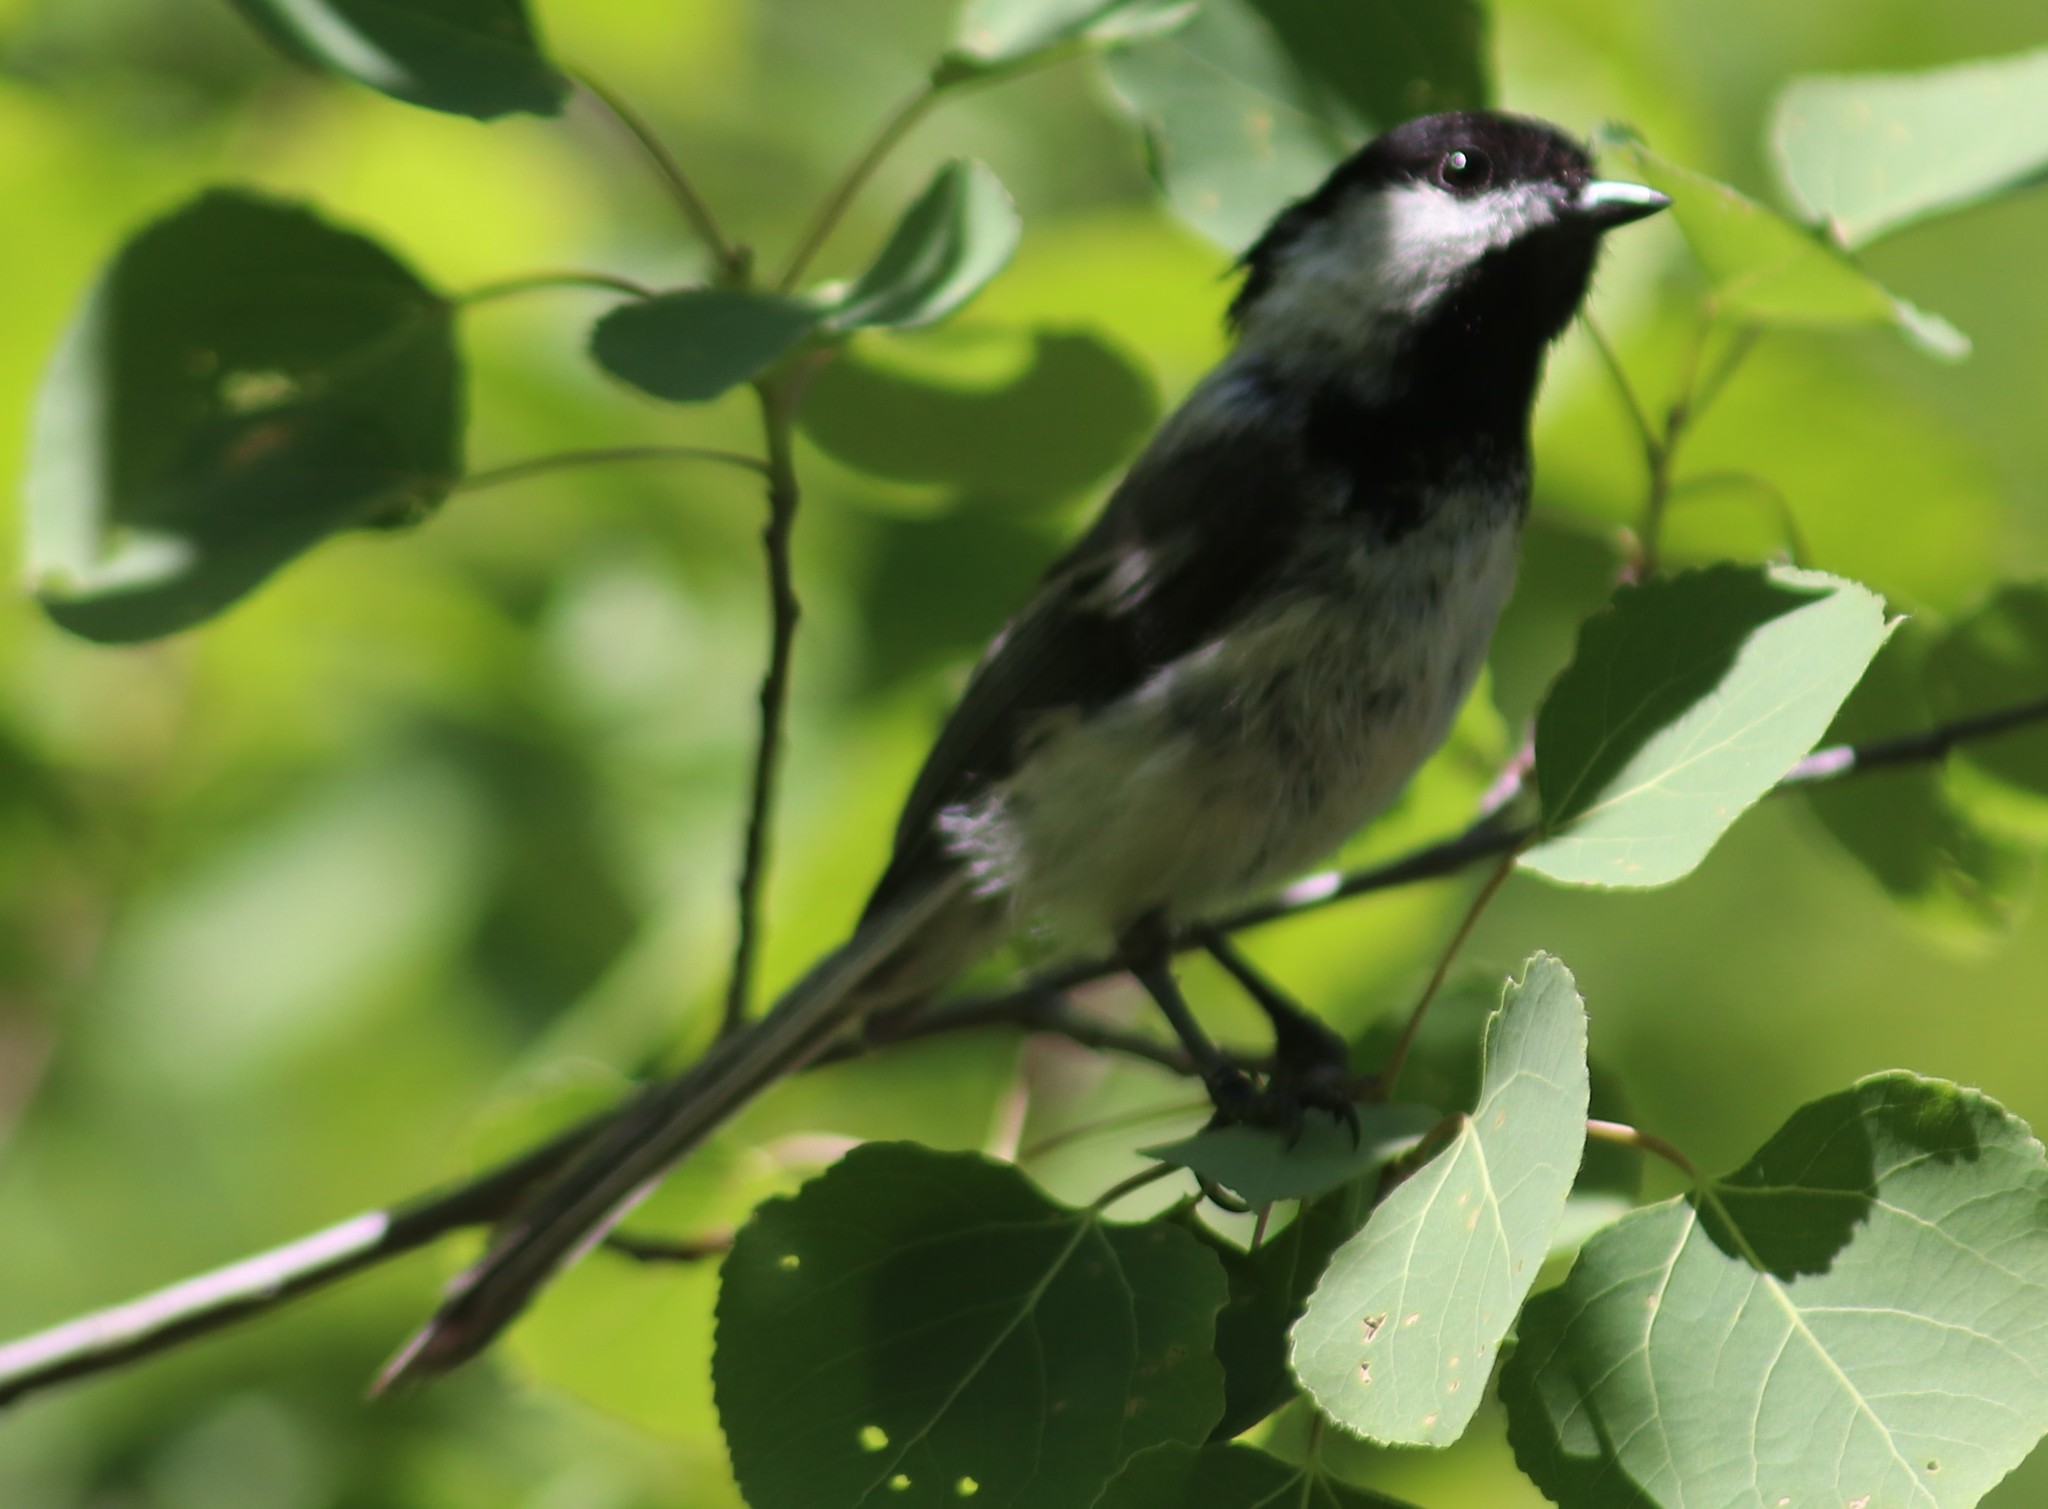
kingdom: Animalia
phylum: Chordata
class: Aves
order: Passeriformes
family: Paridae
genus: Poecile
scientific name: Poecile atricapillus
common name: Black-capped chickadee
